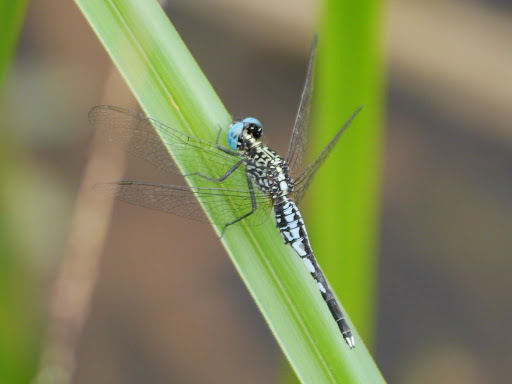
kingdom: Animalia
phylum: Arthropoda
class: Insecta
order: Odonata
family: Libellulidae
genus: Acisoma
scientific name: Acisoma inflatum
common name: Stout pintail
